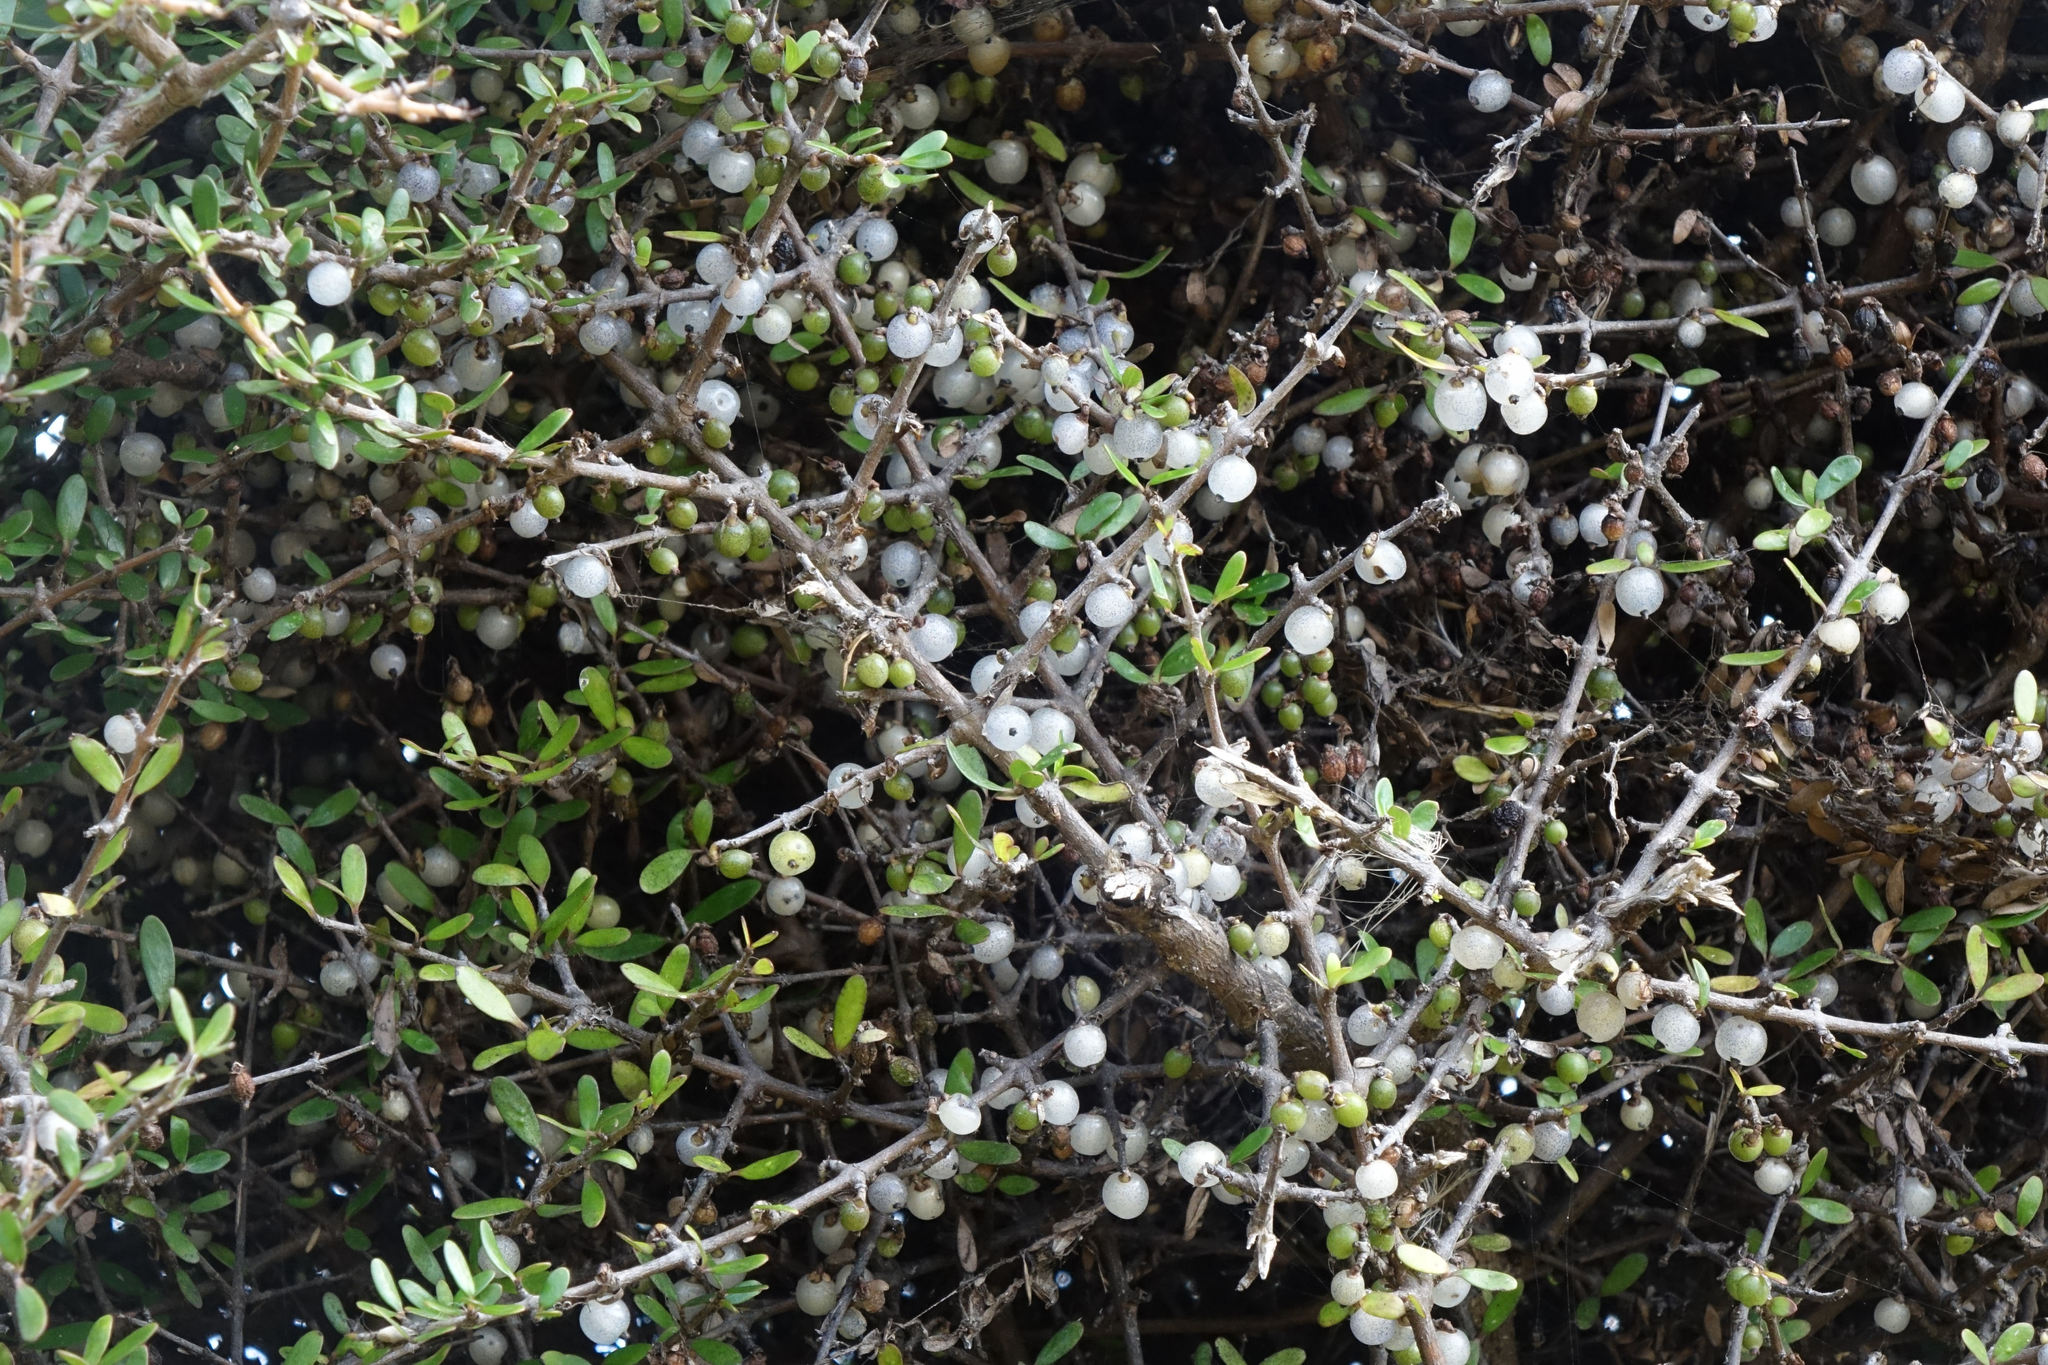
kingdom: Plantae
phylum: Tracheophyta
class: Magnoliopsida
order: Gentianales
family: Rubiaceae
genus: Coprosma
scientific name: Coprosma propinqua
